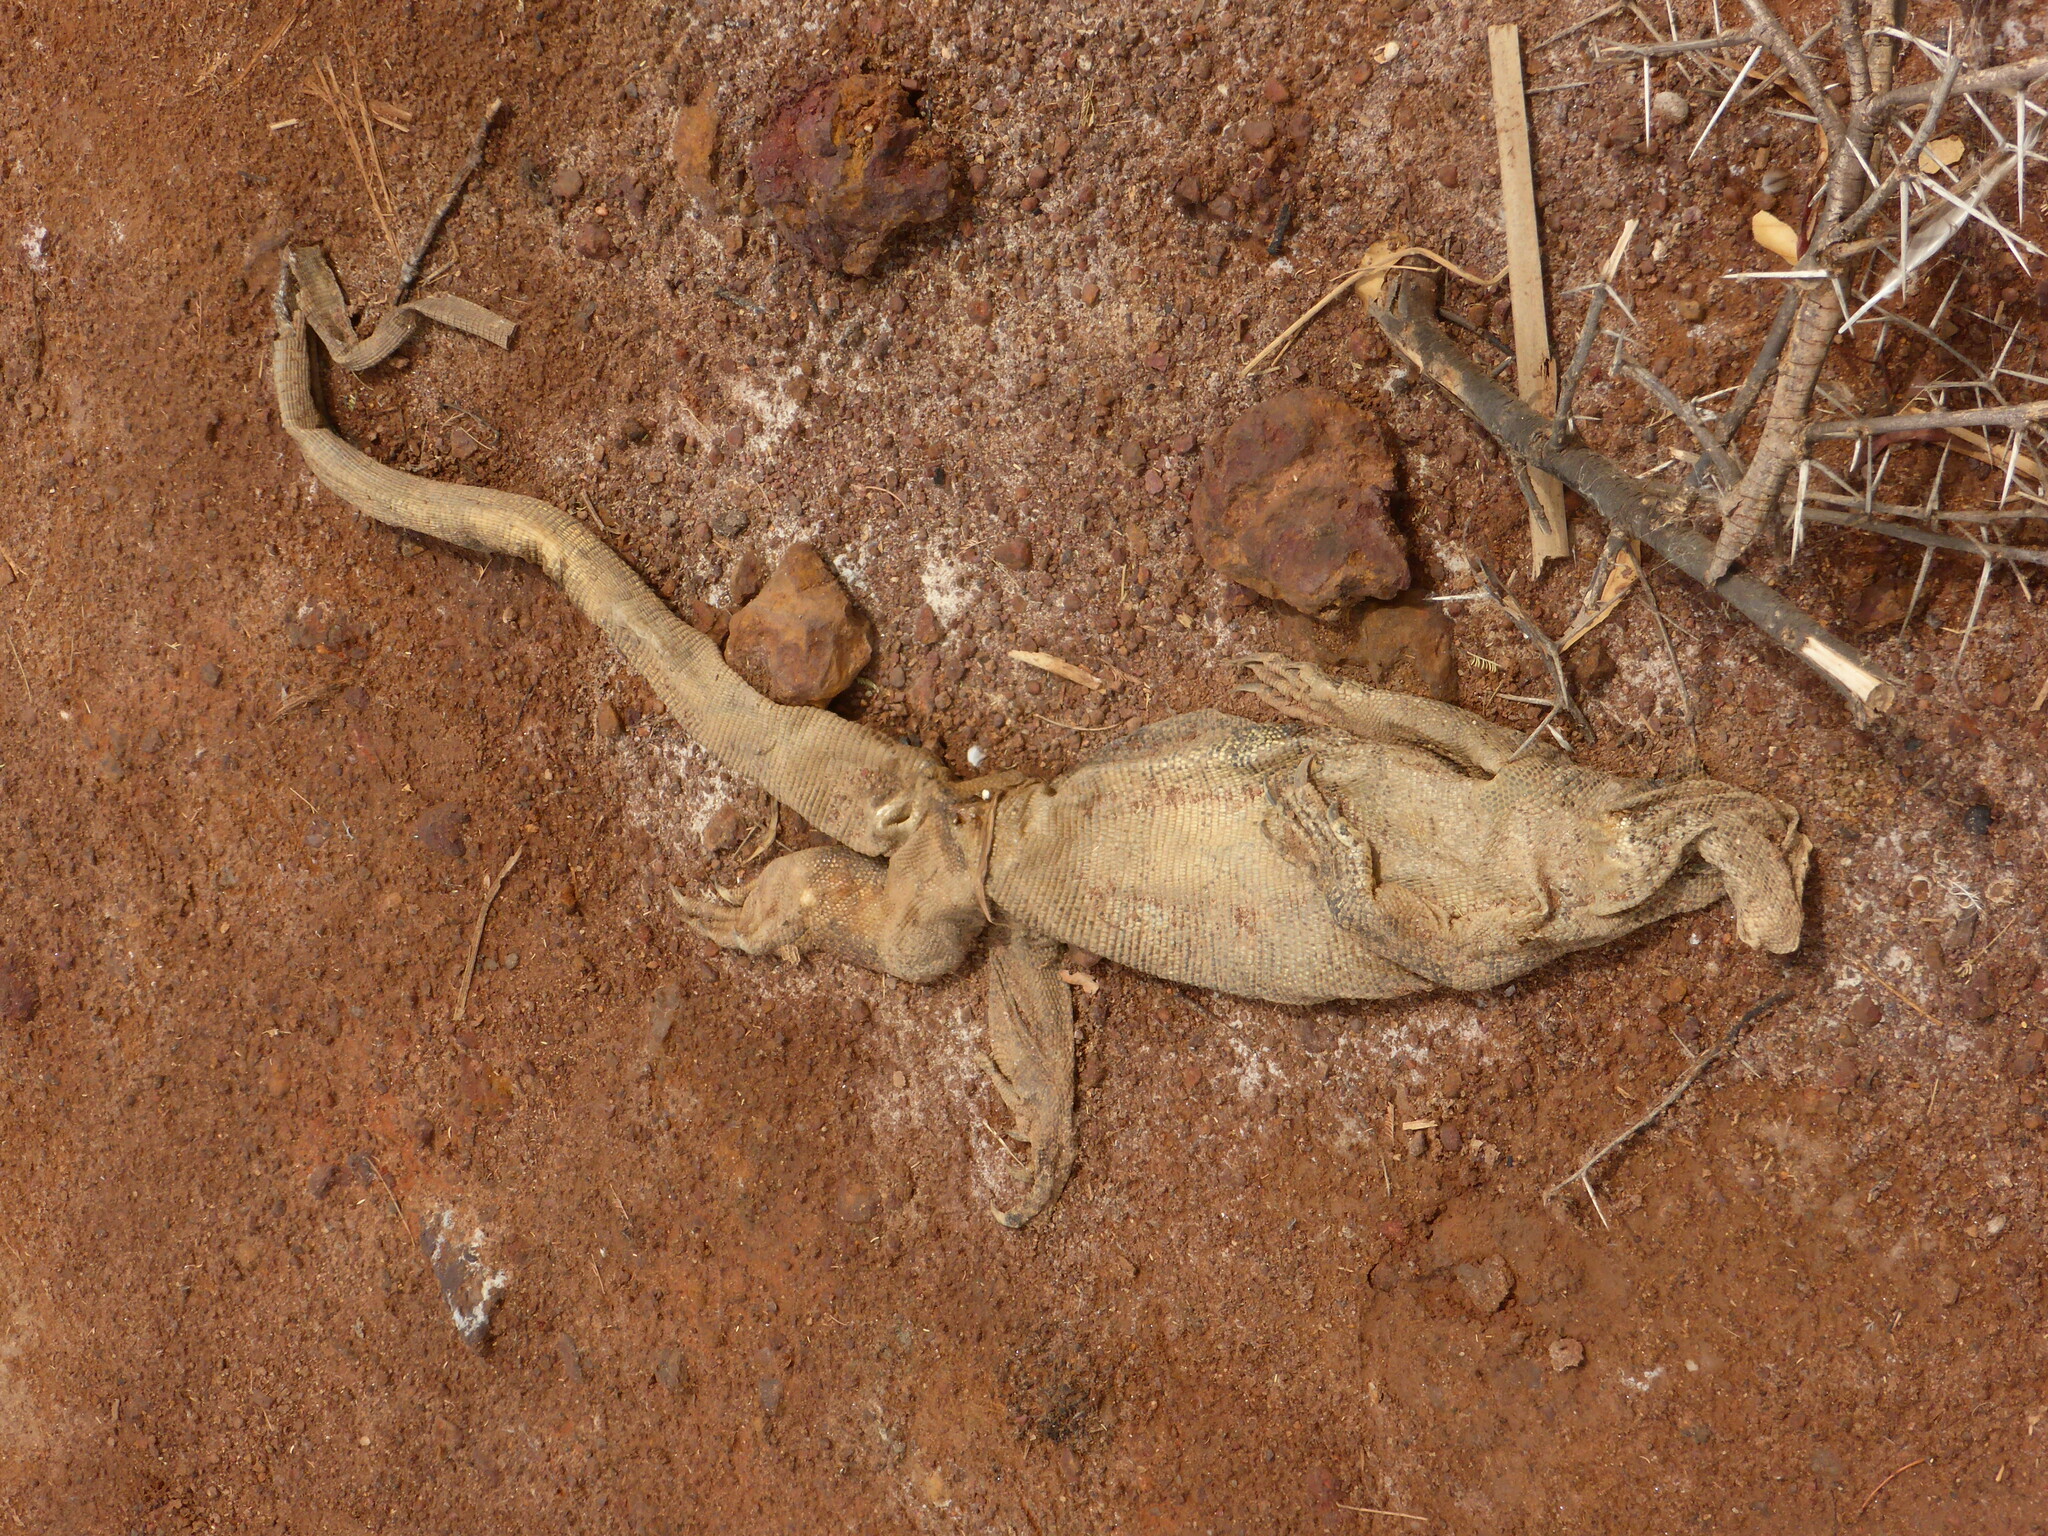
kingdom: Animalia
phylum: Chordata
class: Squamata
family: Varanidae
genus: Varanus
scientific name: Varanus niloticus
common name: Nile monitor
